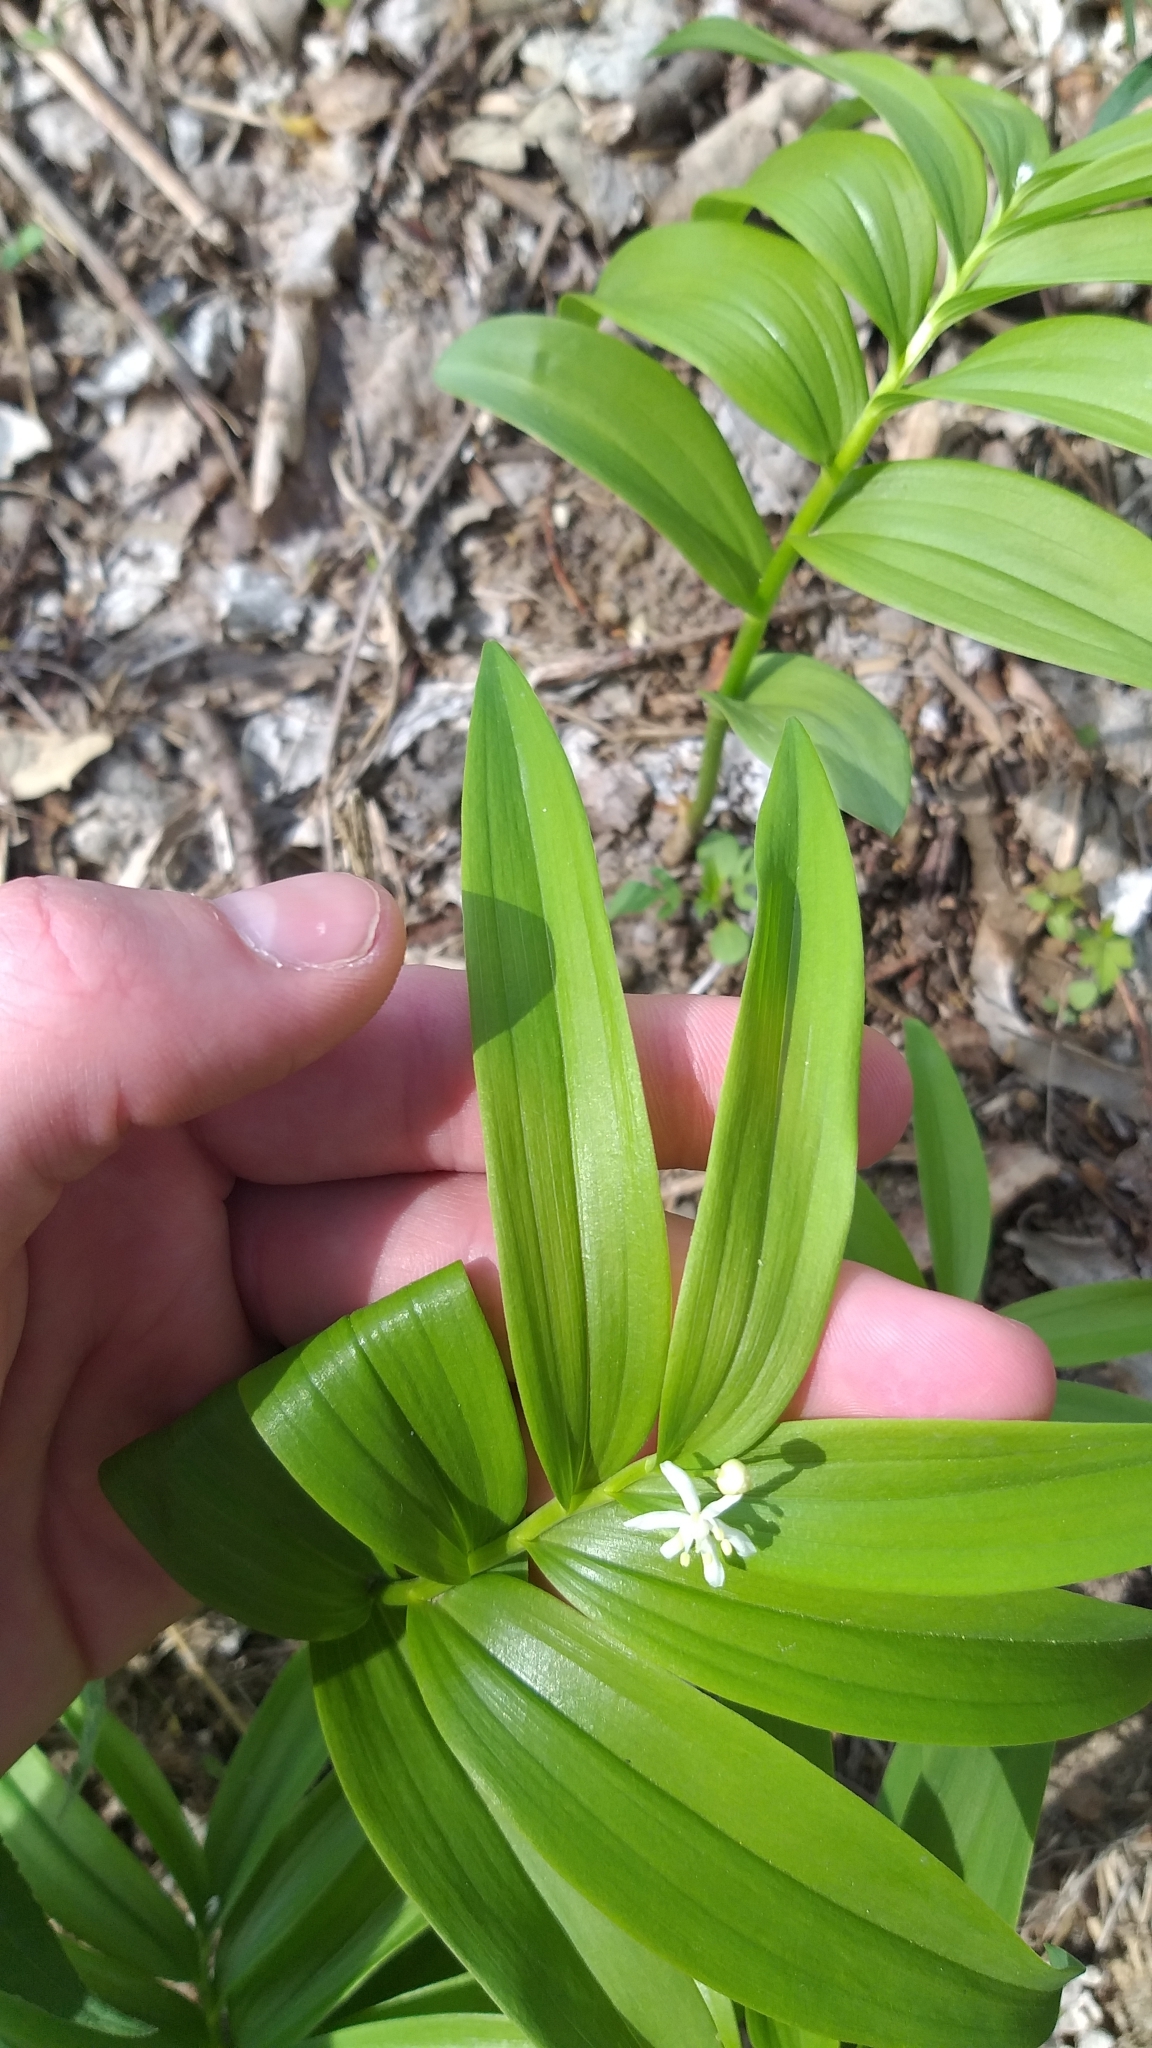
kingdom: Plantae
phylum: Tracheophyta
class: Liliopsida
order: Asparagales
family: Asparagaceae
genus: Maianthemum
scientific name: Maianthemum stellatum
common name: Little false solomon's seal
